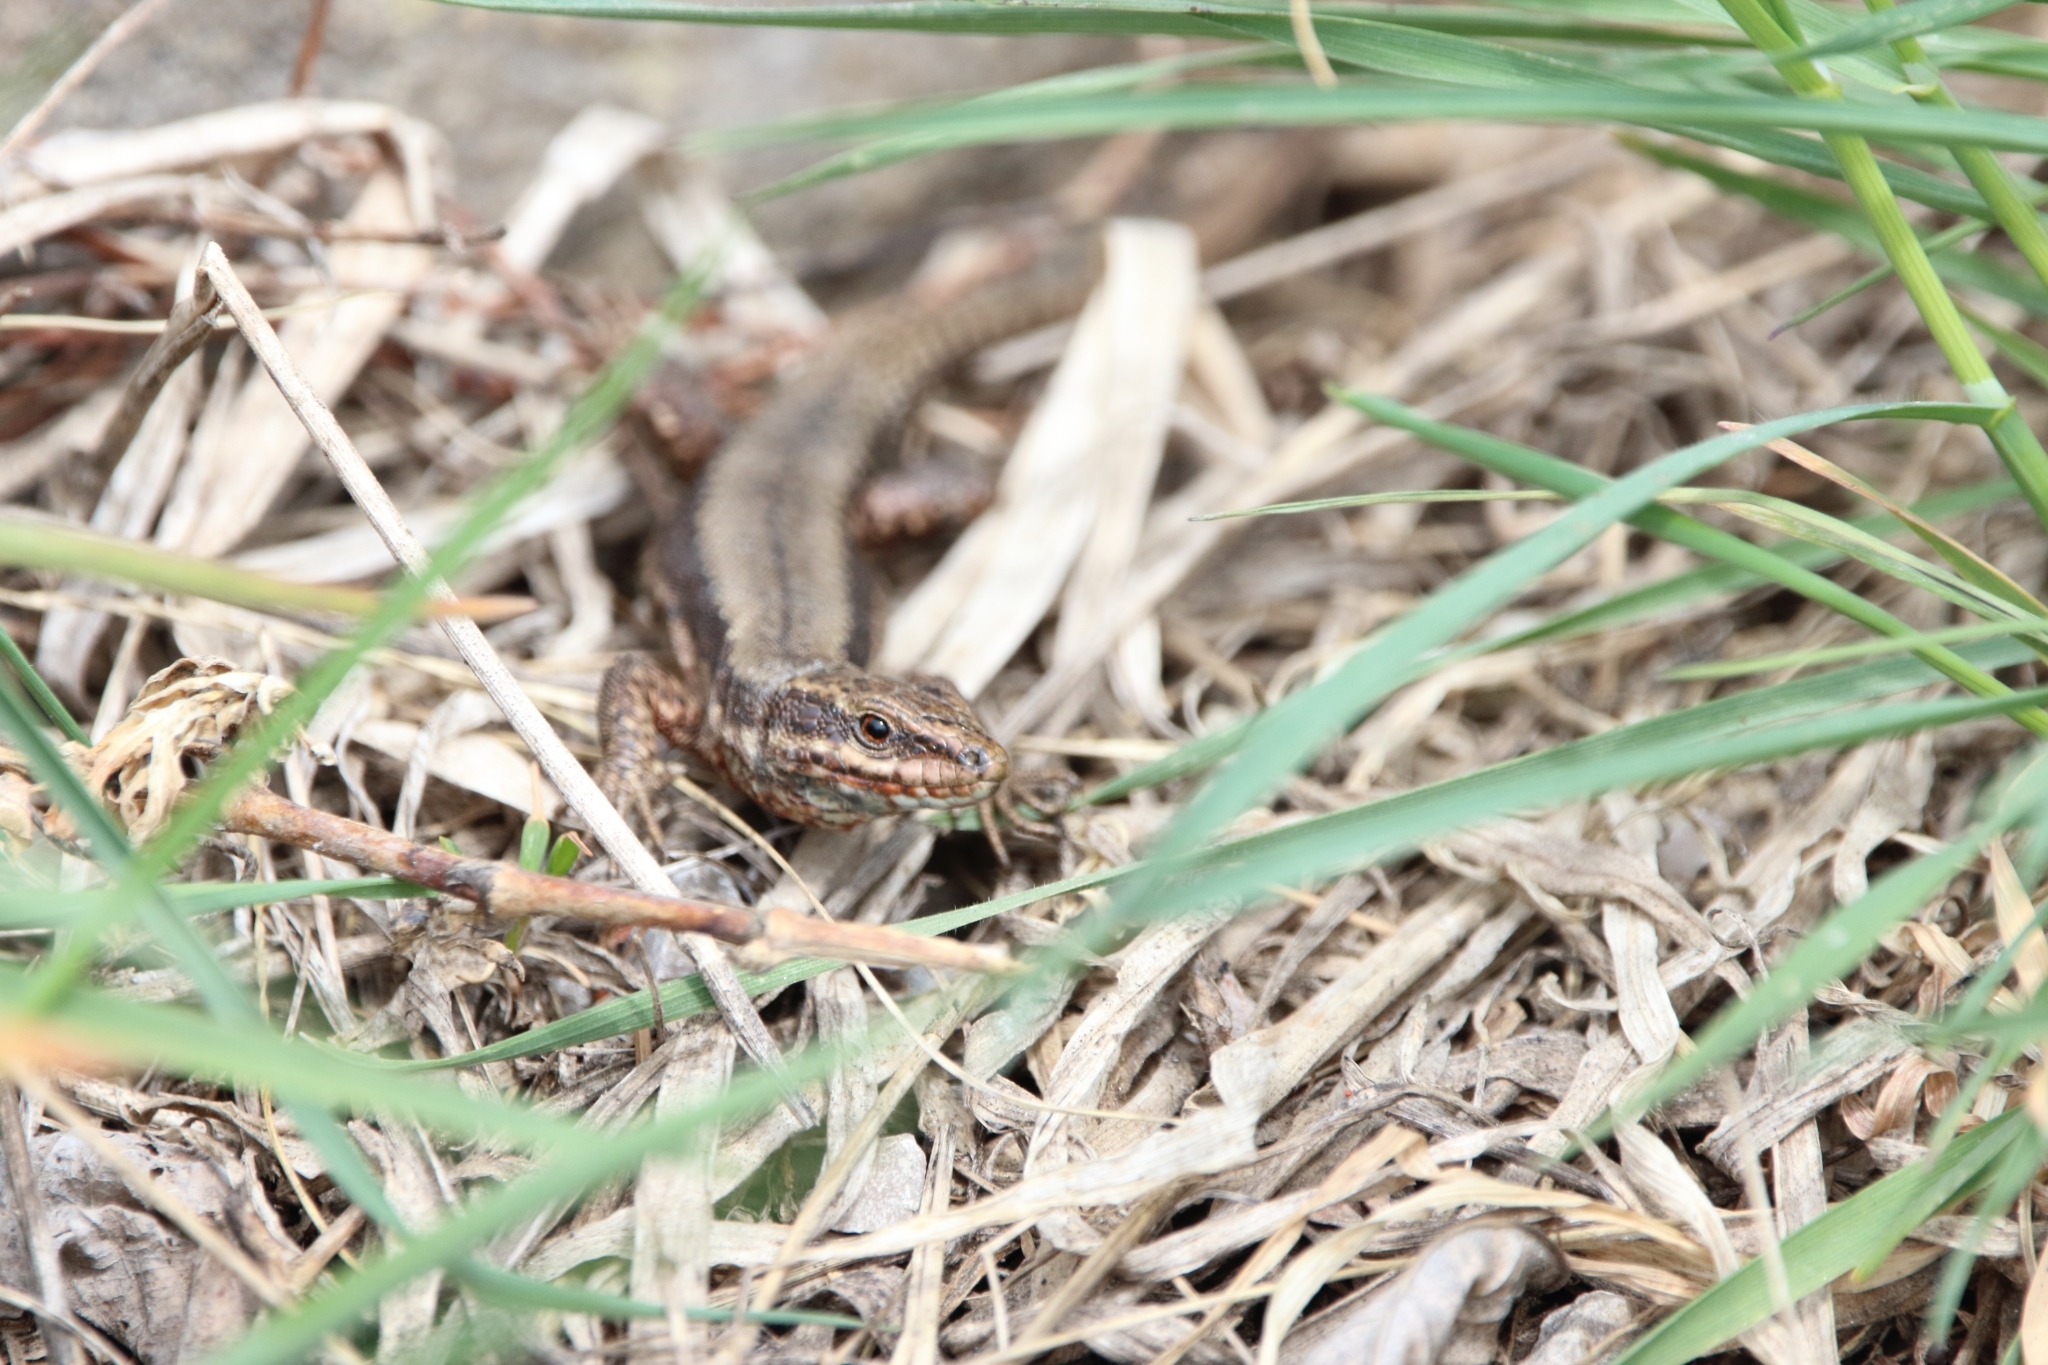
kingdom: Animalia
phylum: Chordata
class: Squamata
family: Lacertidae
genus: Podarcis
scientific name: Podarcis muralis
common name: Common wall lizard
